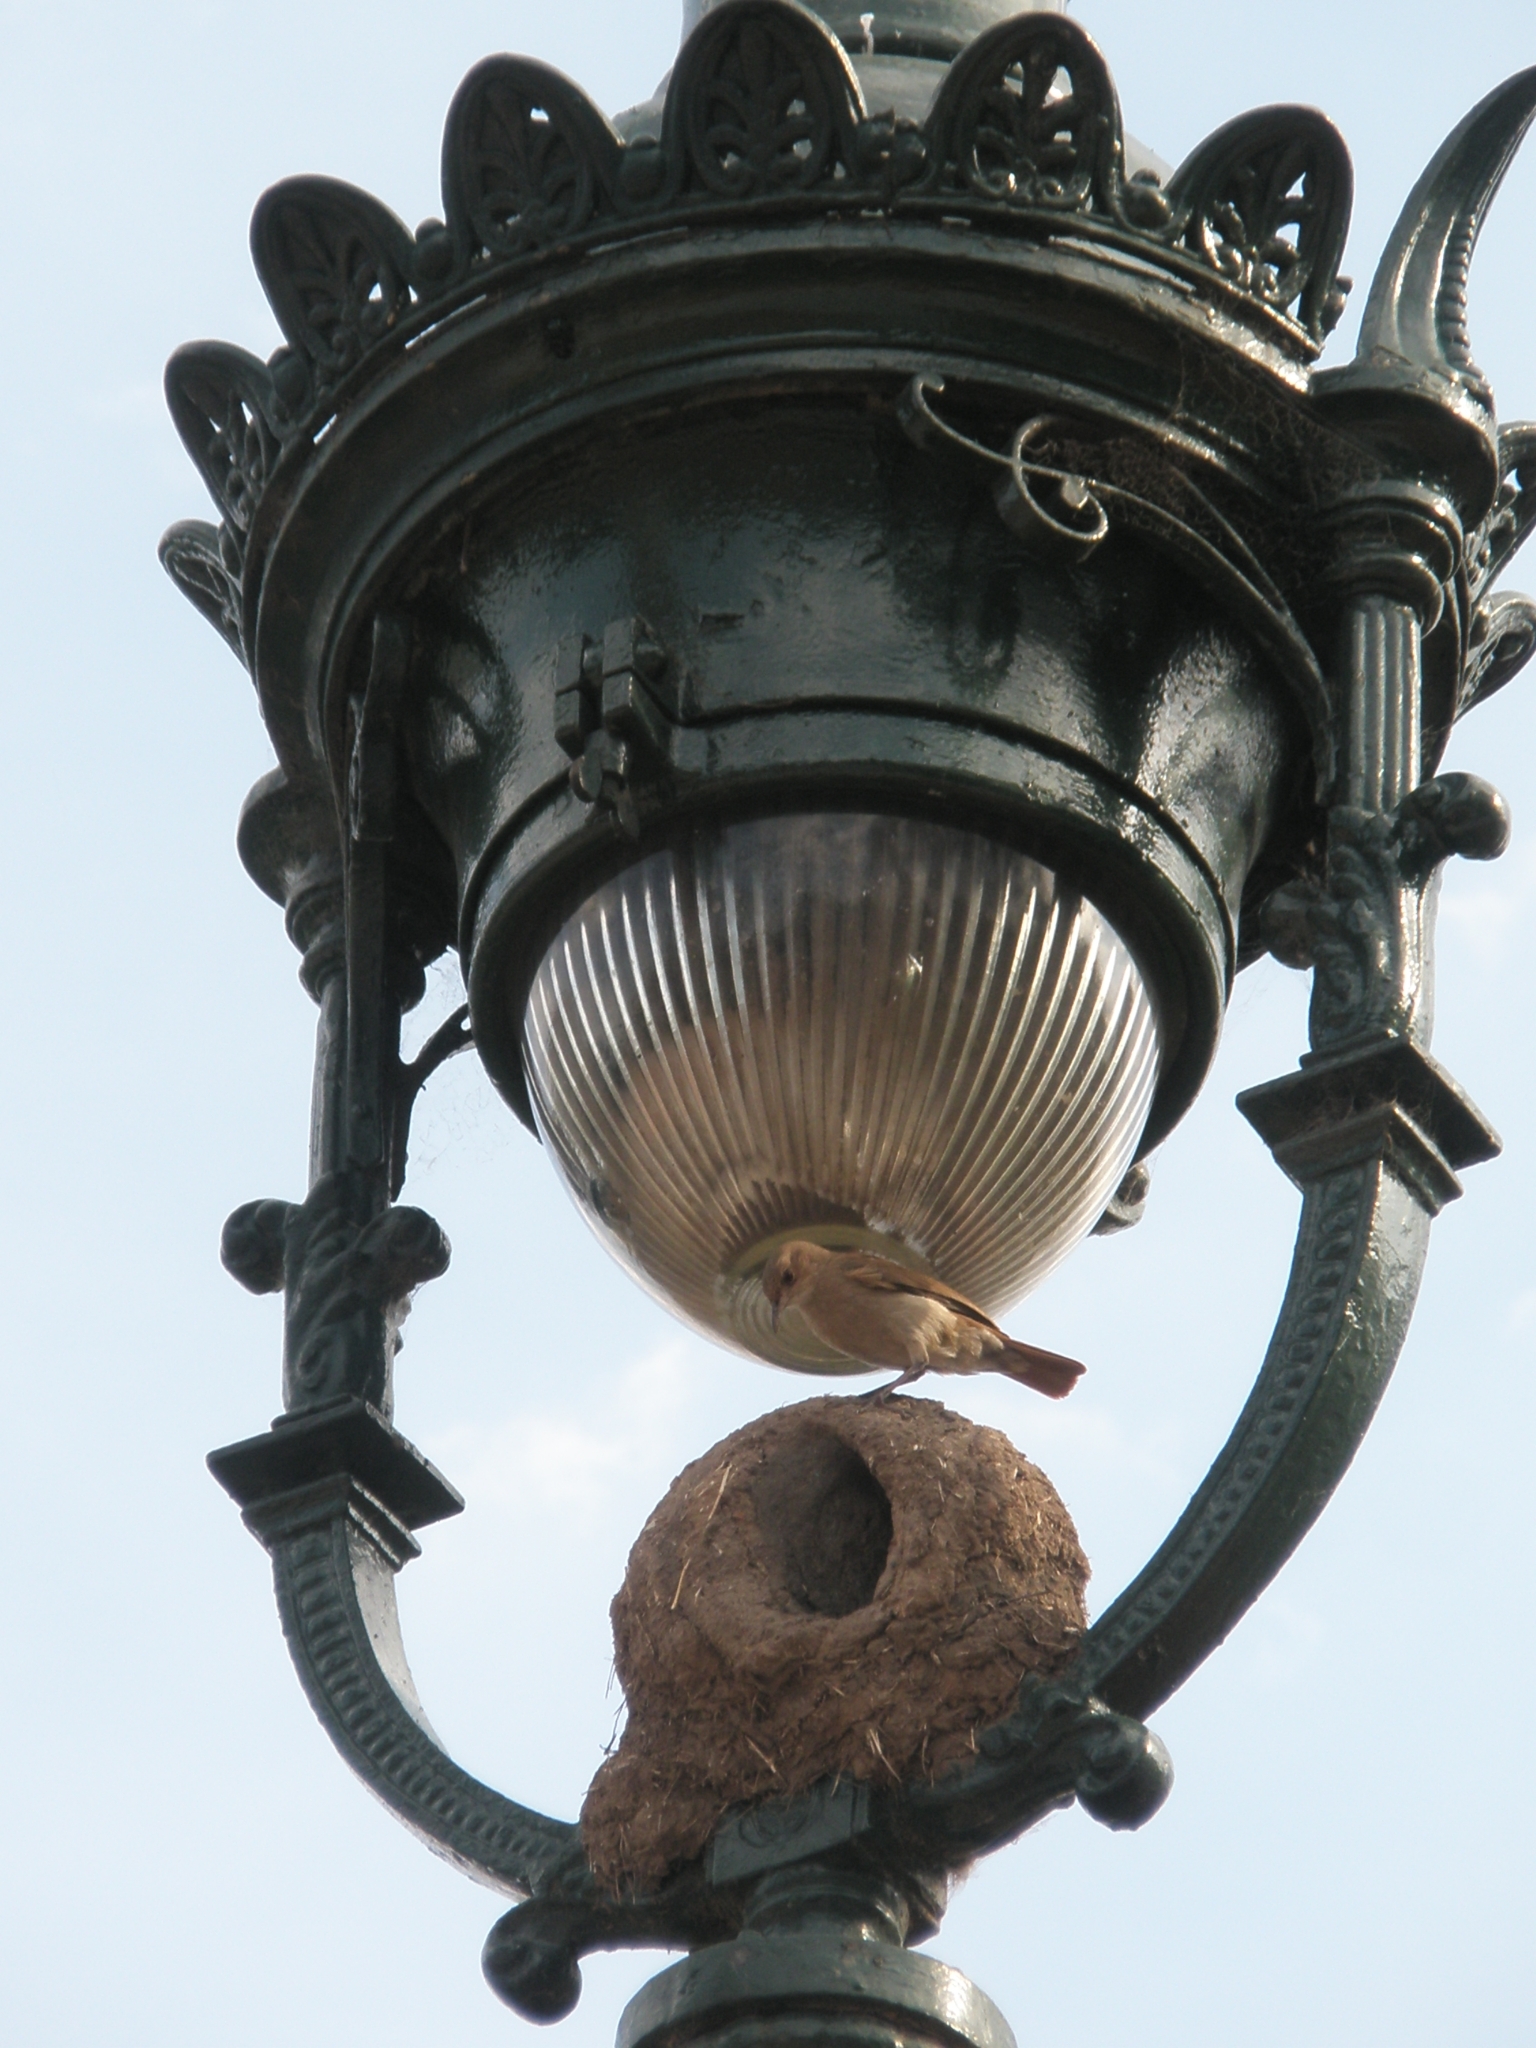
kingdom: Animalia
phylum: Chordata
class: Aves
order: Passeriformes
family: Furnariidae
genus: Furnarius
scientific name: Furnarius rufus
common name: Rufous hornero
